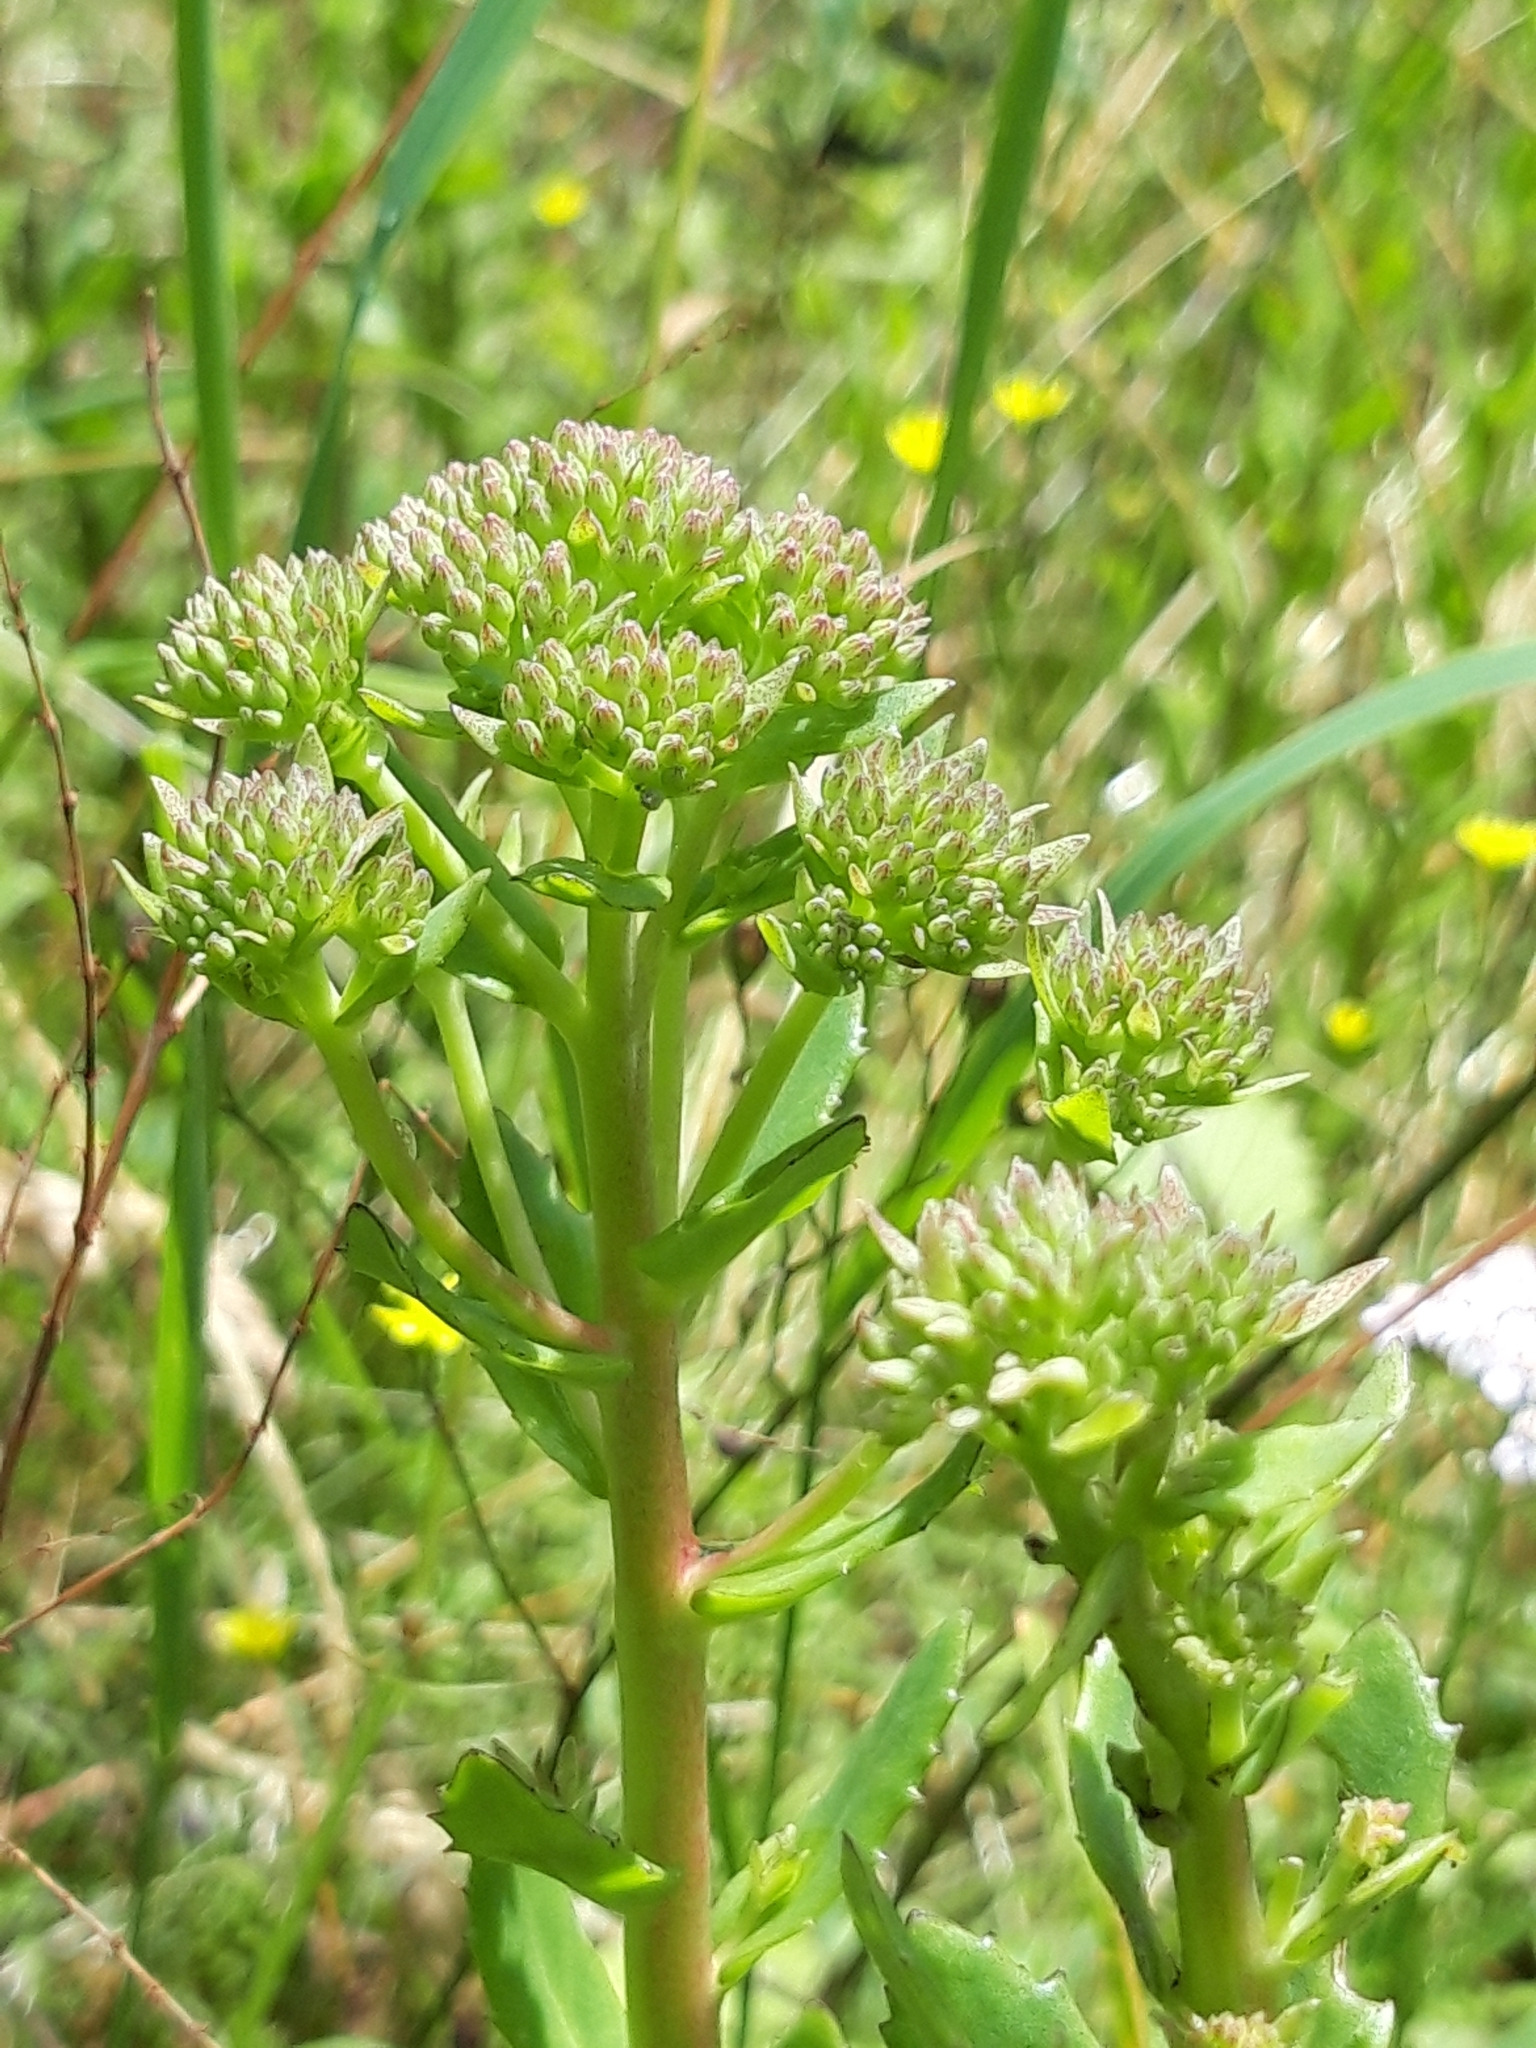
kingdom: Plantae
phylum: Tracheophyta
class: Magnoliopsida
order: Saxifragales
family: Crassulaceae
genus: Hylotelephium
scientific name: Hylotelephium telephium
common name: Live-forever
